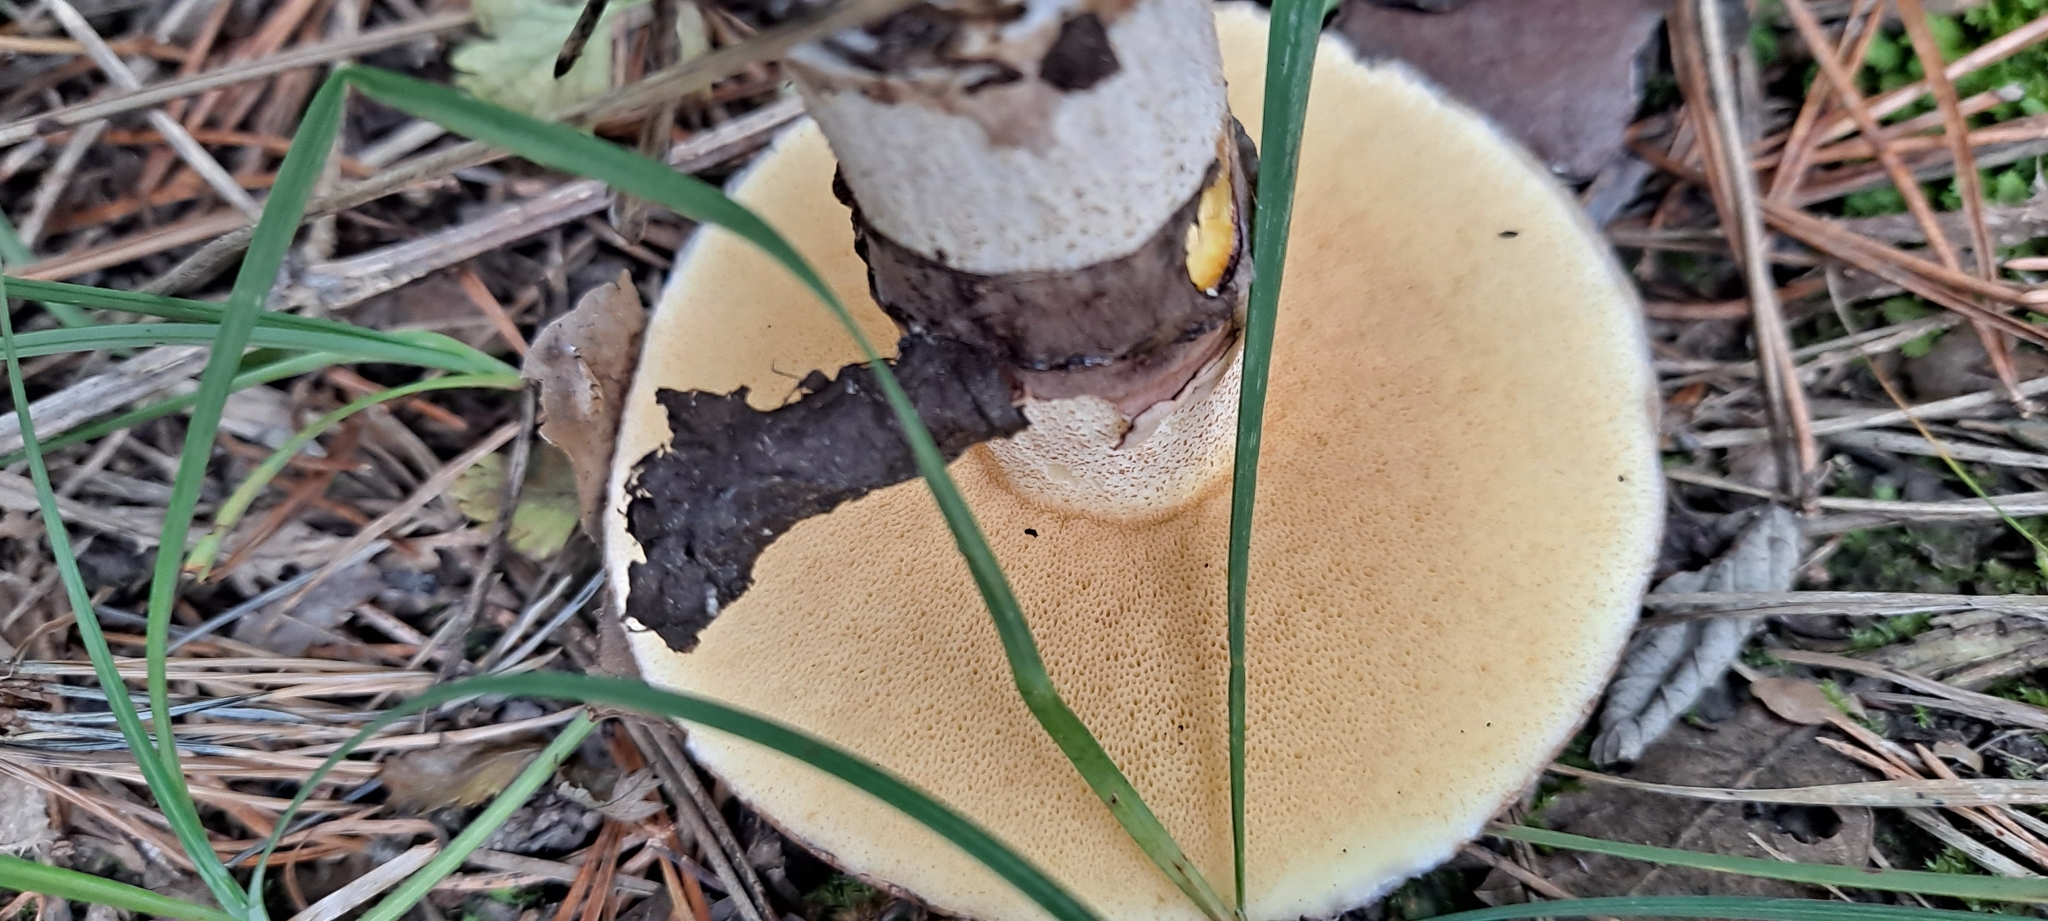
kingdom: Fungi
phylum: Basidiomycota
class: Agaricomycetes
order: Boletales
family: Suillaceae
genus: Suillus
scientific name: Suillus luteus
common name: Slippery jack
